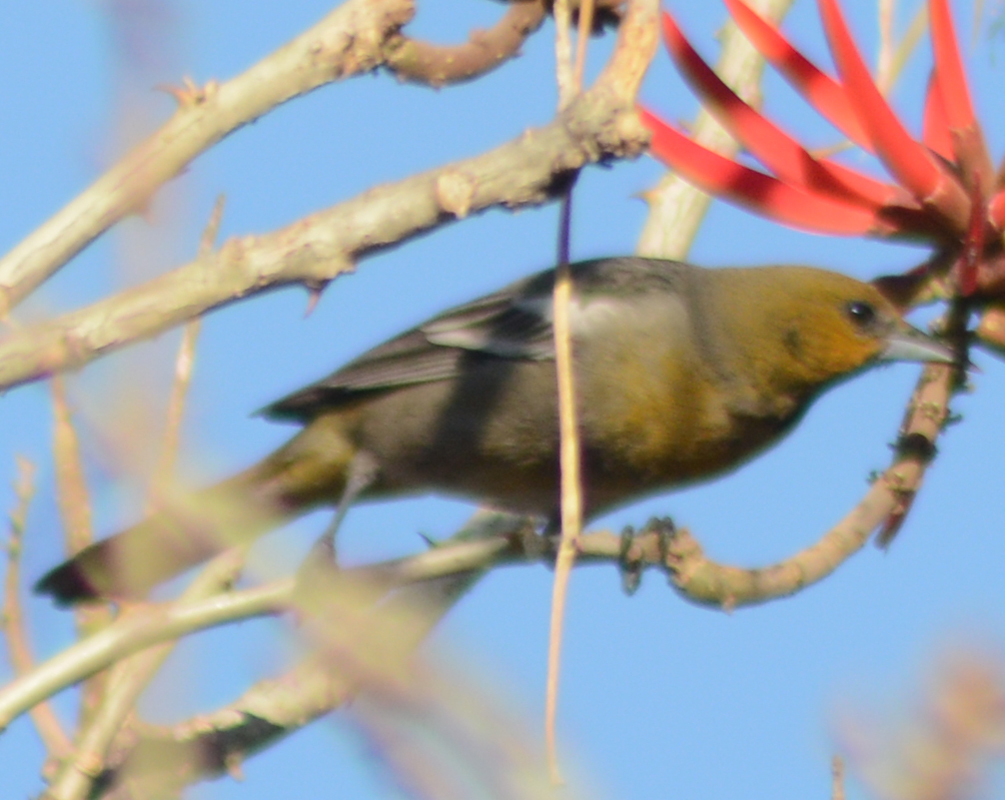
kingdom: Animalia
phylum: Chordata
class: Aves
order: Passeriformes
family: Icteridae
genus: Icterus
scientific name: Icterus abeillei
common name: Black-backed oriole
